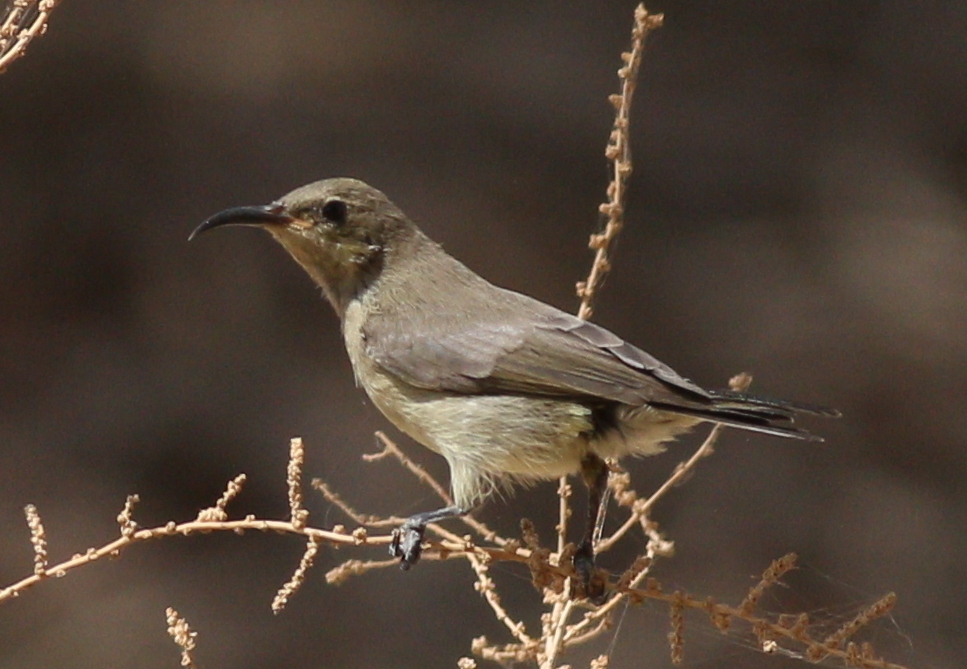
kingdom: Animalia
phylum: Chordata
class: Aves
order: Passeriformes
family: Nectariniidae
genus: Cinnyris
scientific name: Cinnyris osea
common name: Palestine sunbird
